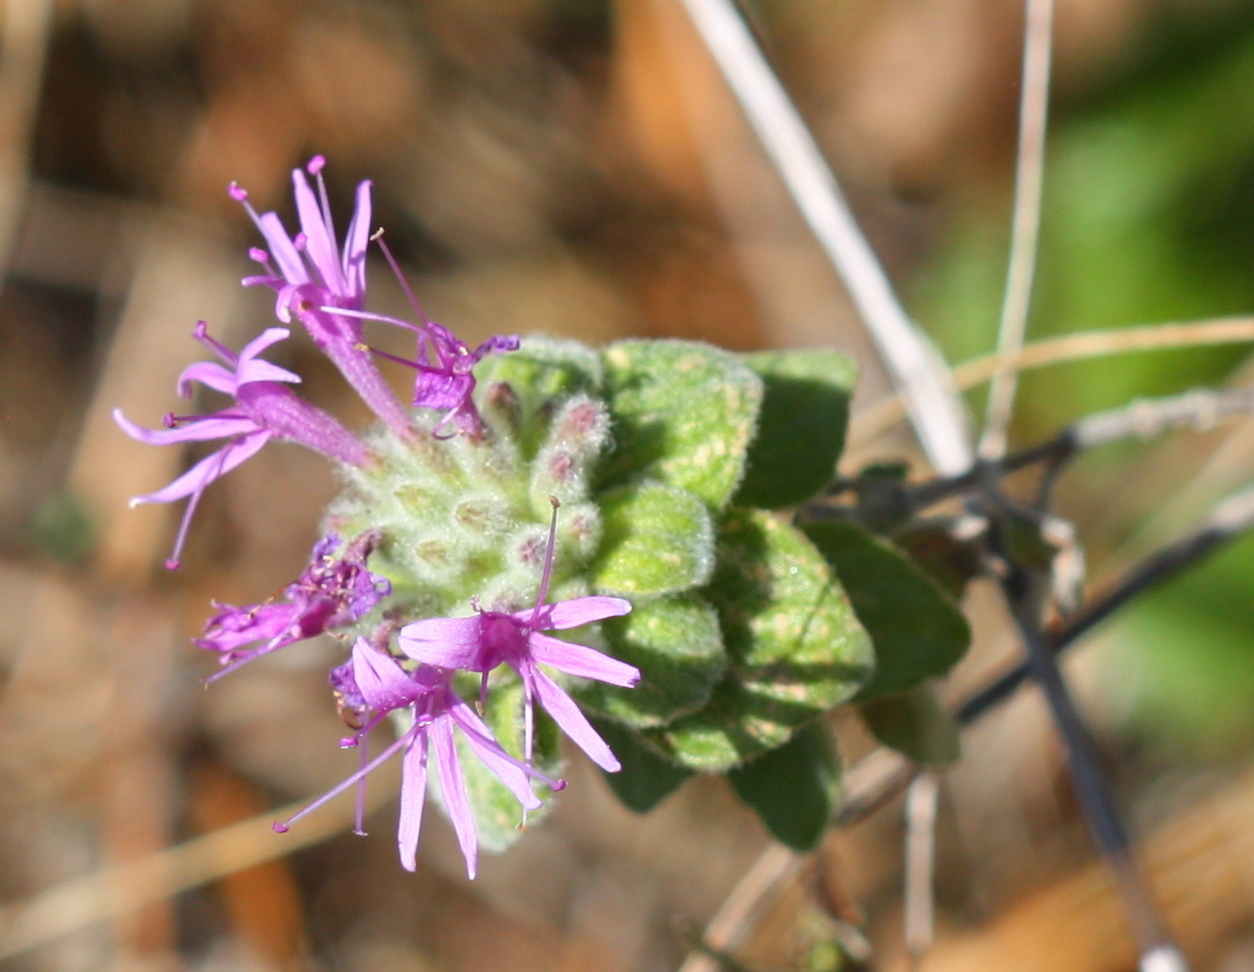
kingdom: Plantae
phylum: Tracheophyta
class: Magnoliopsida
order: Lamiales
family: Lamiaceae
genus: Monardella
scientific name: Monardella odoratissima
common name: Pacific monardella
